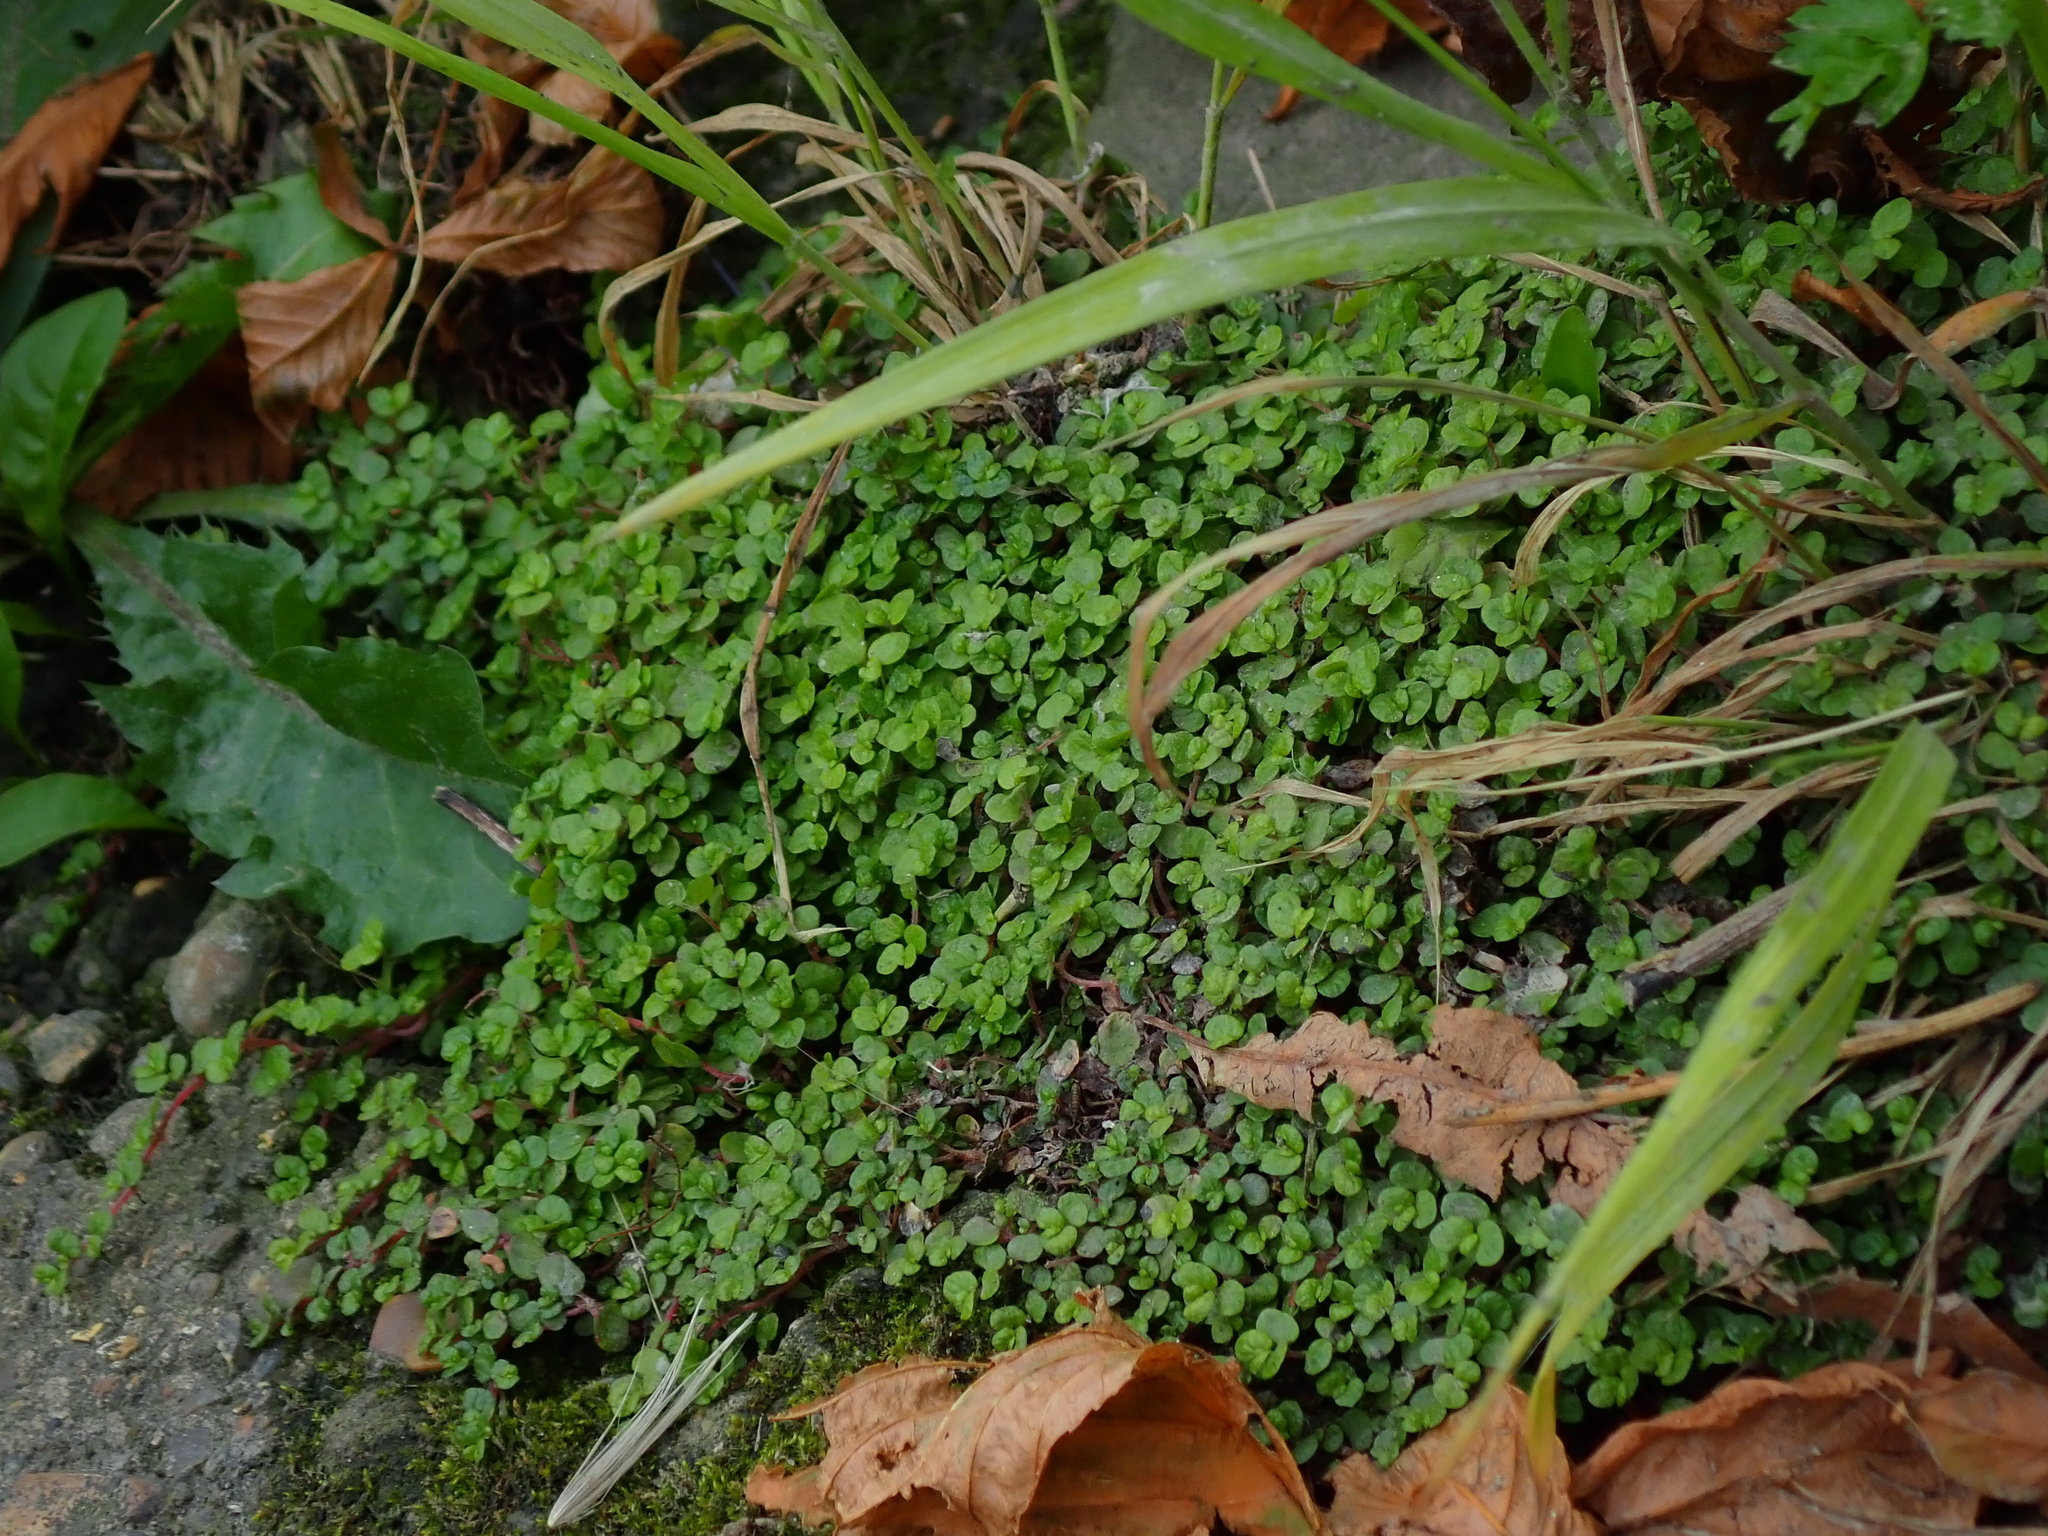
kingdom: Plantae
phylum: Tracheophyta
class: Magnoliopsida
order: Rosales
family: Urticaceae
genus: Soleirolia
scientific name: Soleirolia soleirolii
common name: Mind-your-own-business
